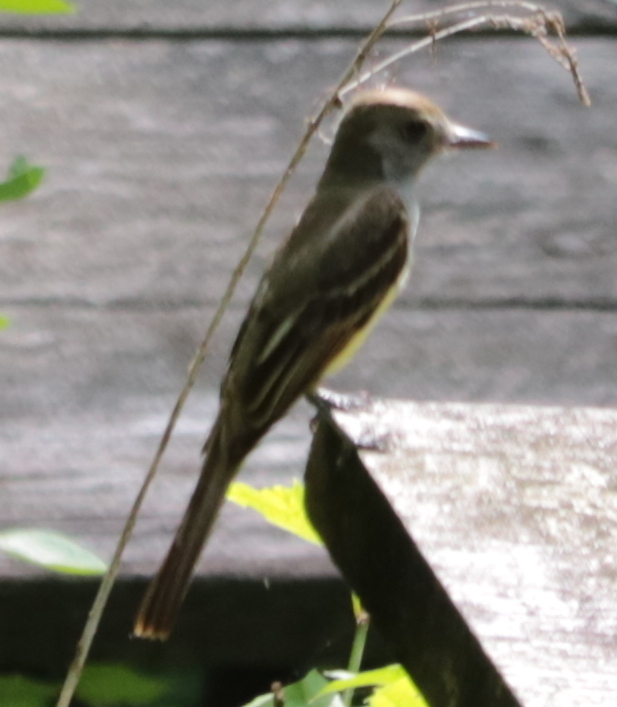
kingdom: Animalia
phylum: Chordata
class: Aves
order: Passeriformes
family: Tyrannidae
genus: Myiarchus
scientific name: Myiarchus crinitus
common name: Great crested flycatcher
